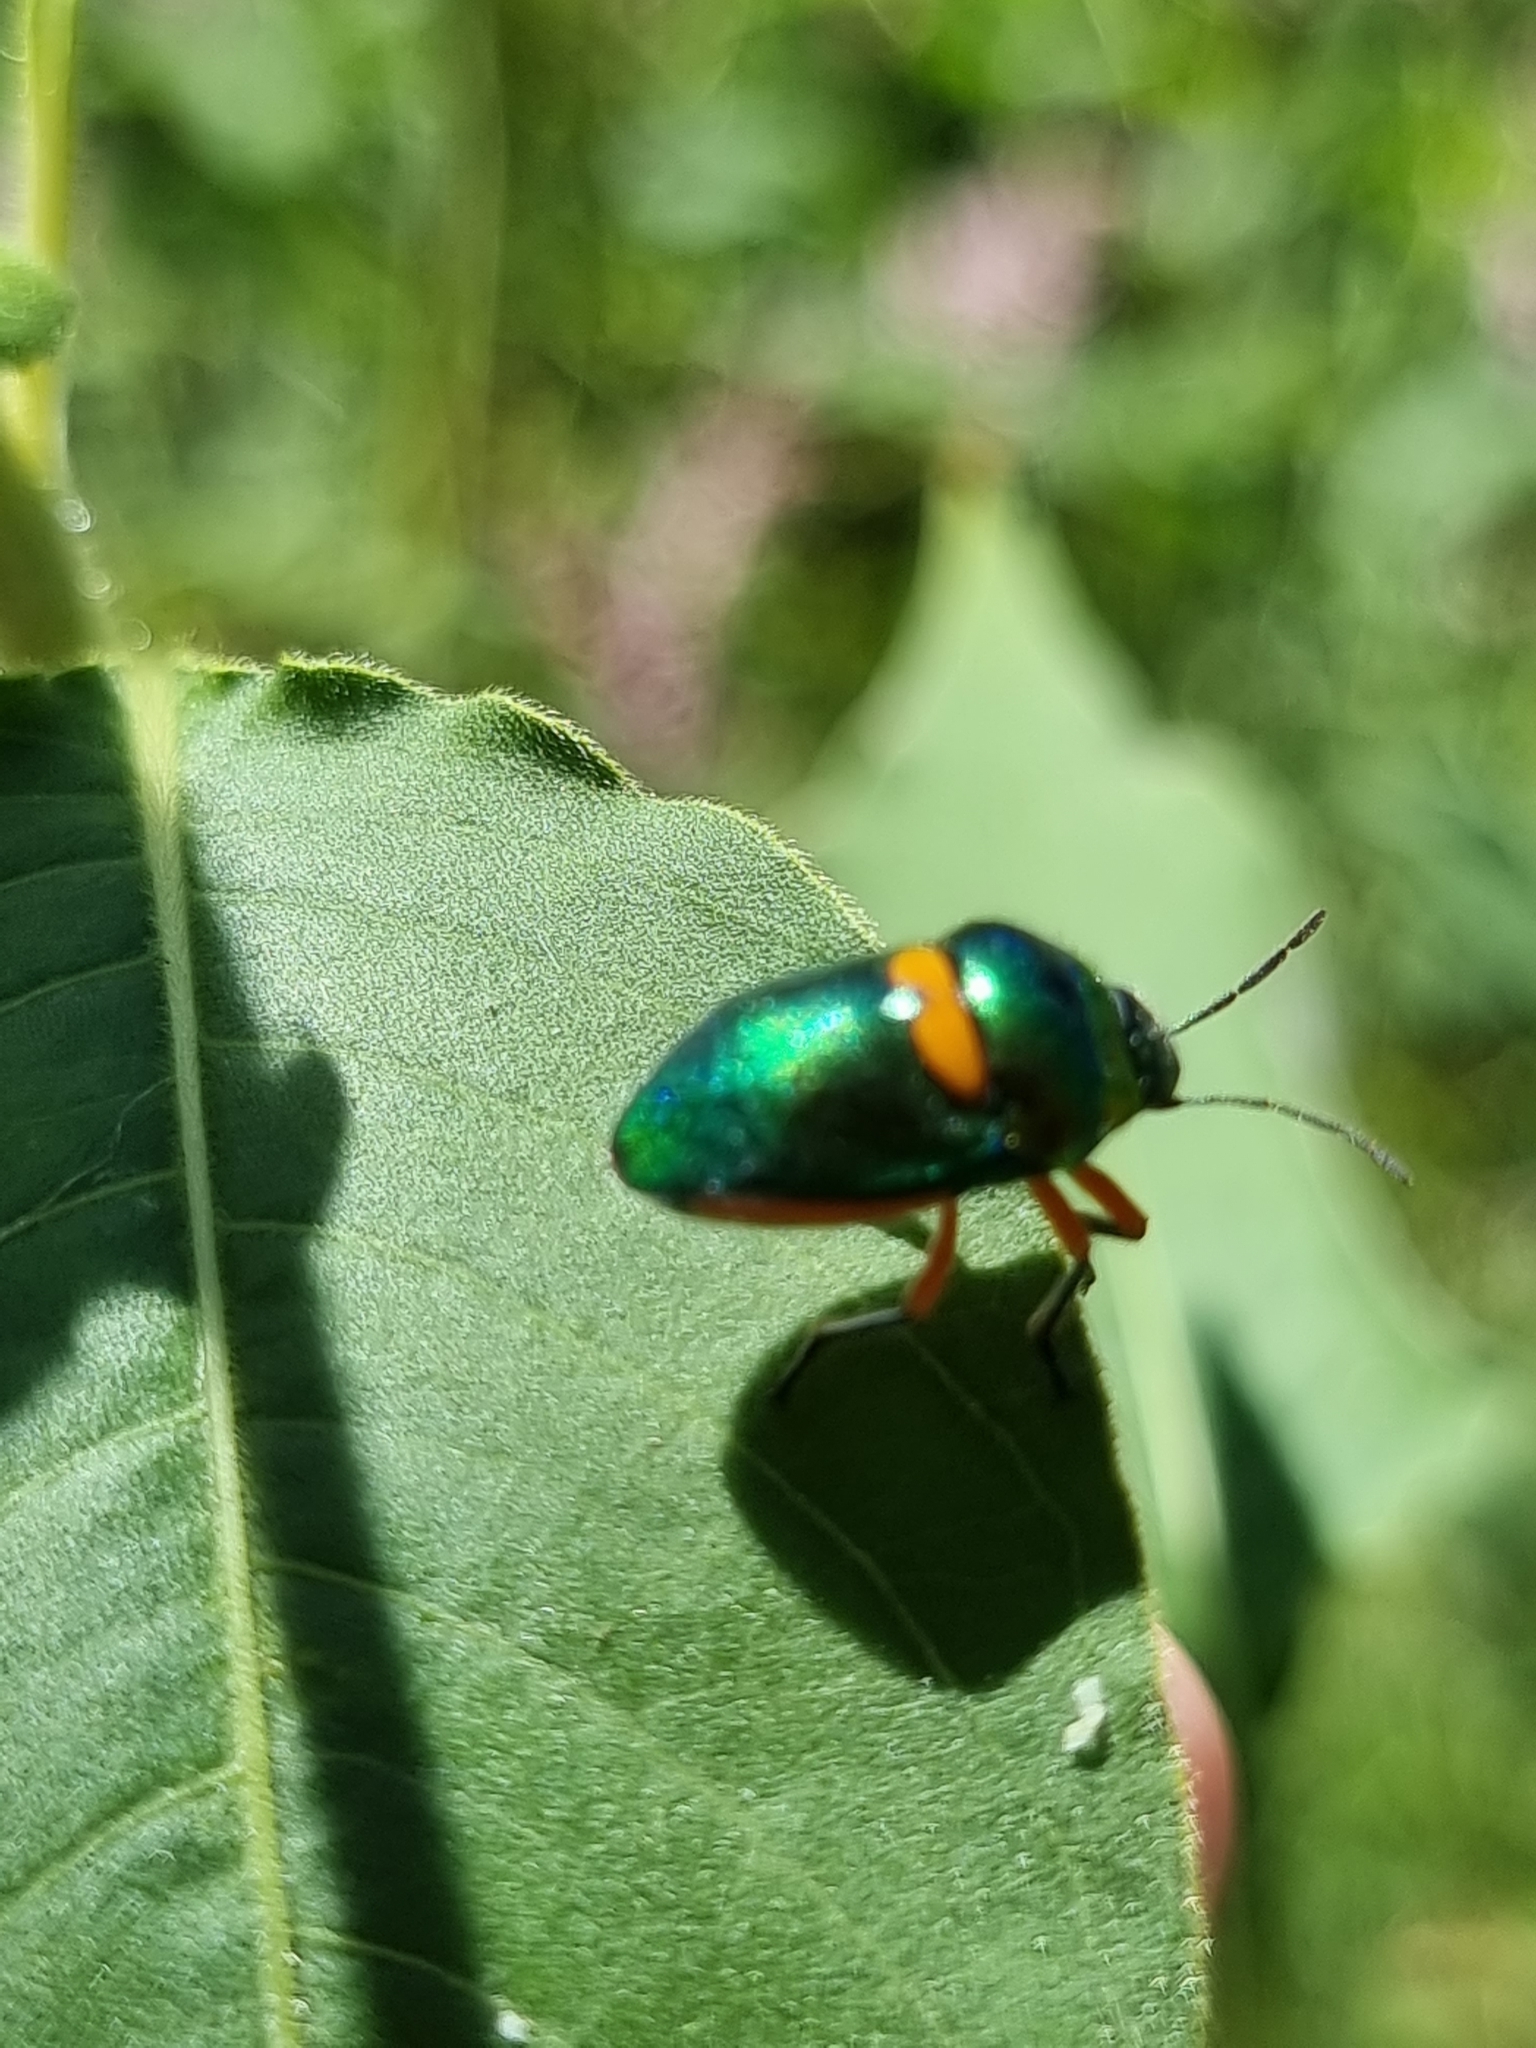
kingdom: Animalia
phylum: Arthropoda
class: Insecta
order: Hemiptera
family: Scutelleridae
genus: Lampromicra
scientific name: Lampromicra senator
